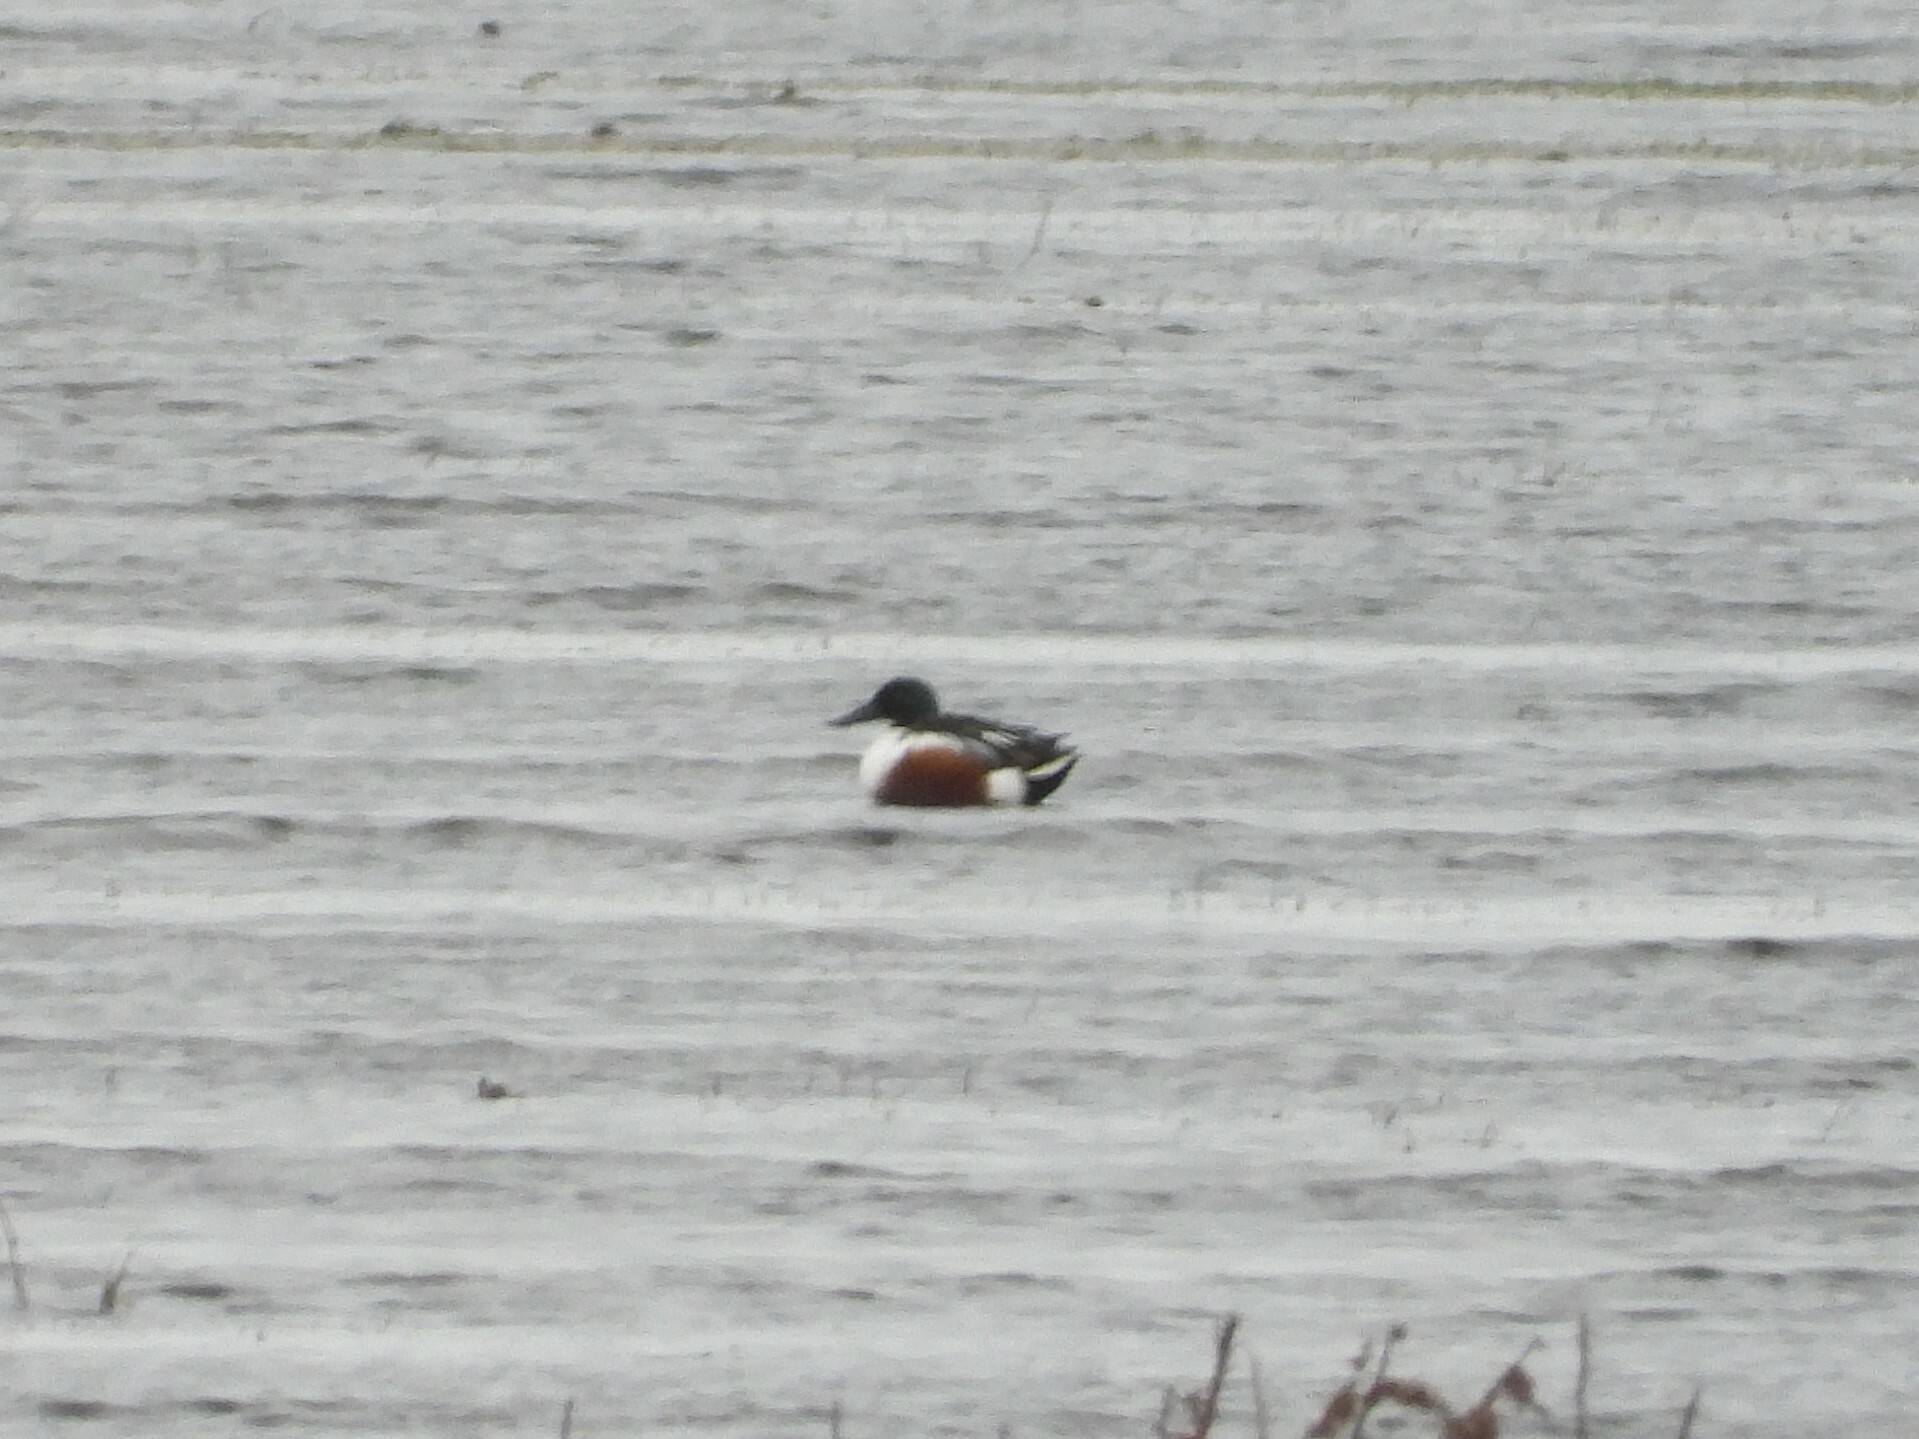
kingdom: Animalia
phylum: Chordata
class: Aves
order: Anseriformes
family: Anatidae
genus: Spatula
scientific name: Spatula clypeata
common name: Northern shoveler
